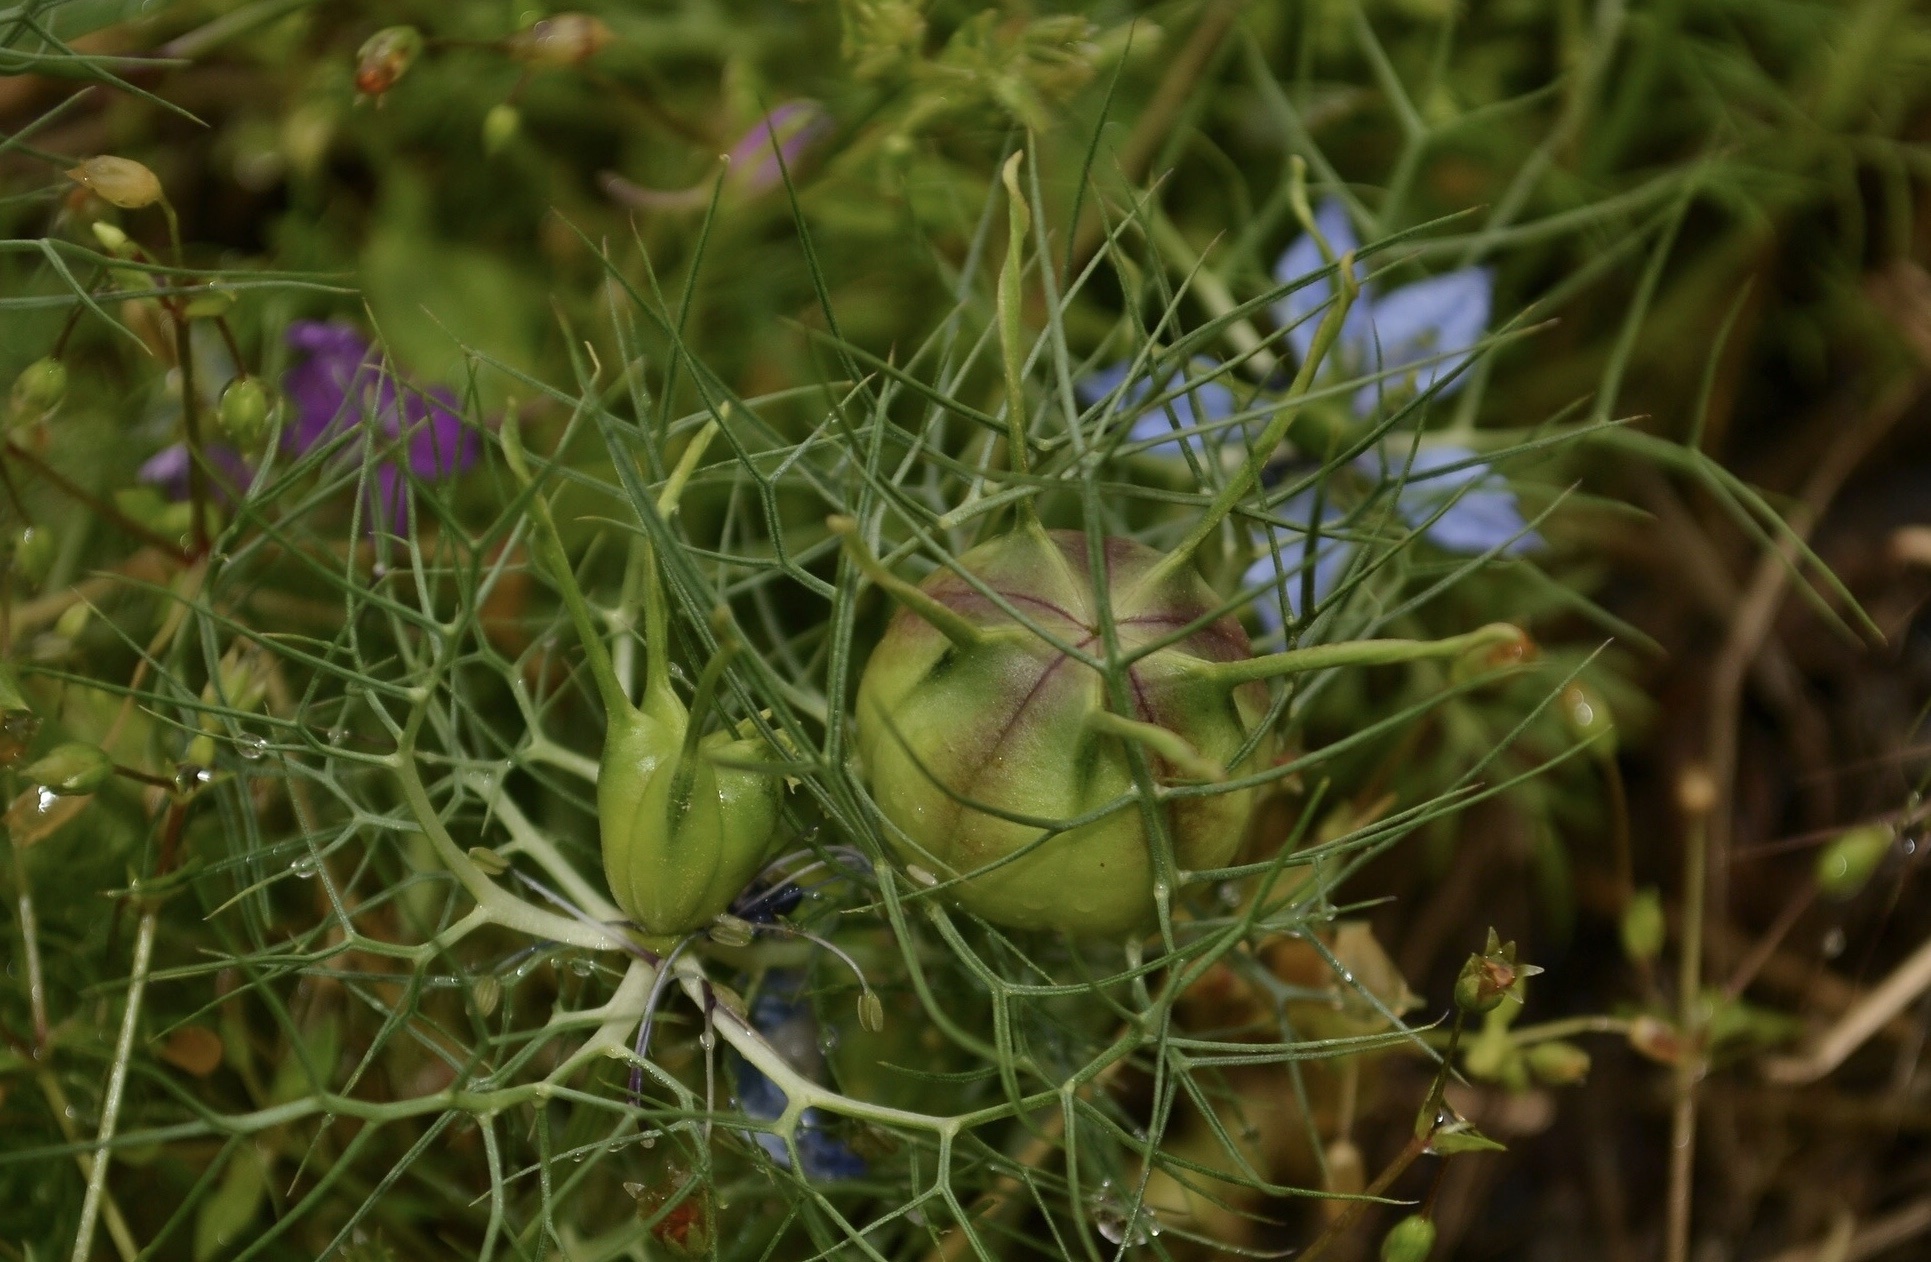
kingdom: Plantae
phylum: Tracheophyta
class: Magnoliopsida
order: Ranunculales
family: Ranunculaceae
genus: Nigella
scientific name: Nigella damascena
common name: Love-in-a-mist
